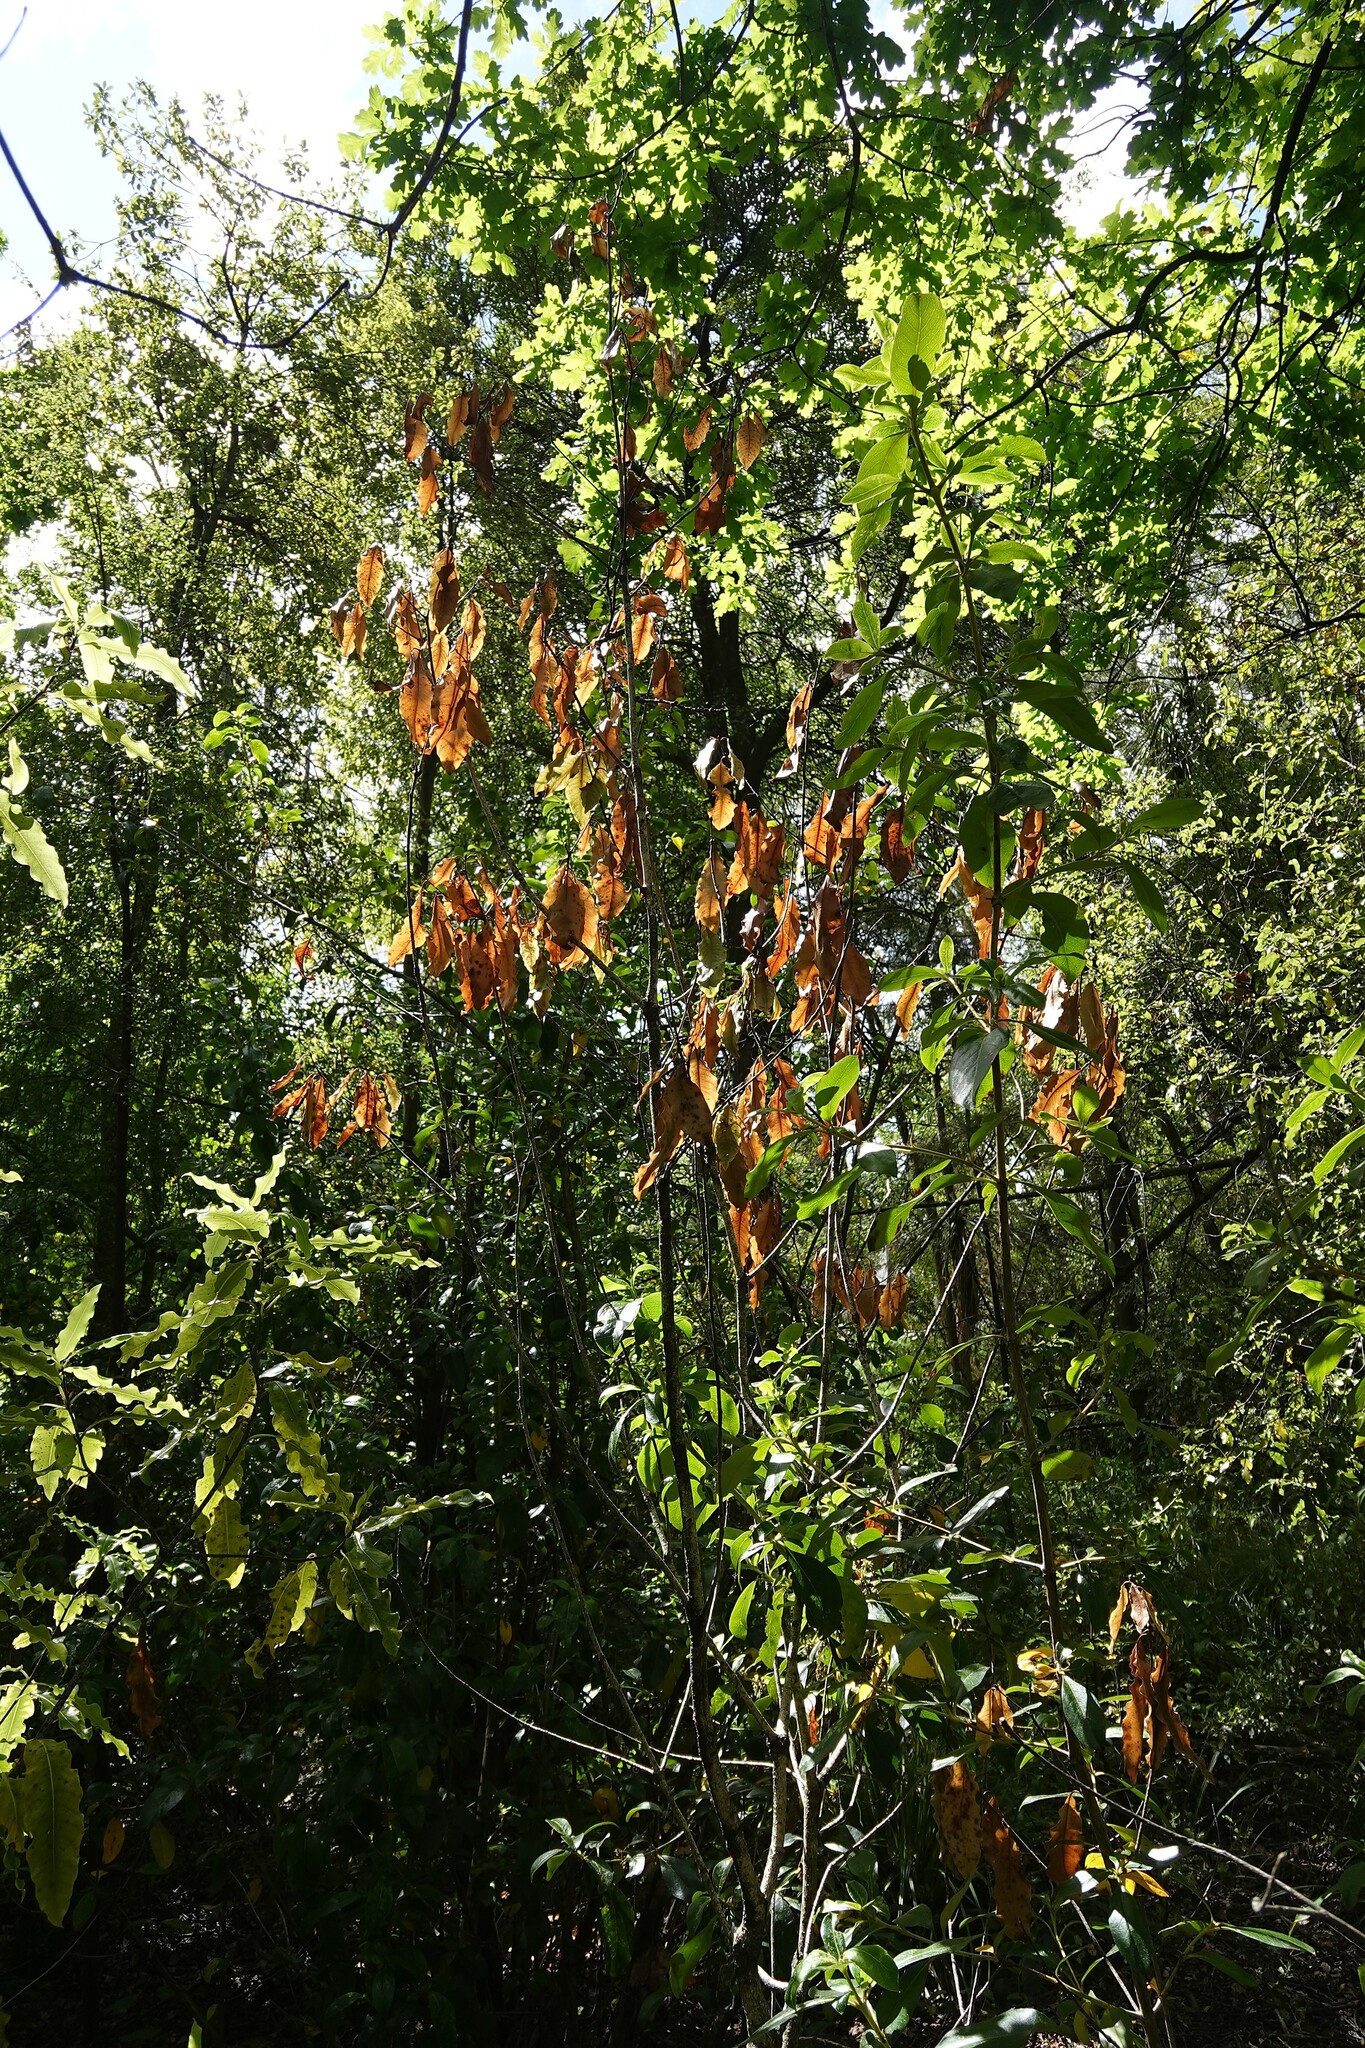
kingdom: Plantae
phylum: Tracheophyta
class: Magnoliopsida
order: Apiales
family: Pittosporaceae
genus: Pittosporum
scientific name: Pittosporum eugenioides
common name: Lemonwood
